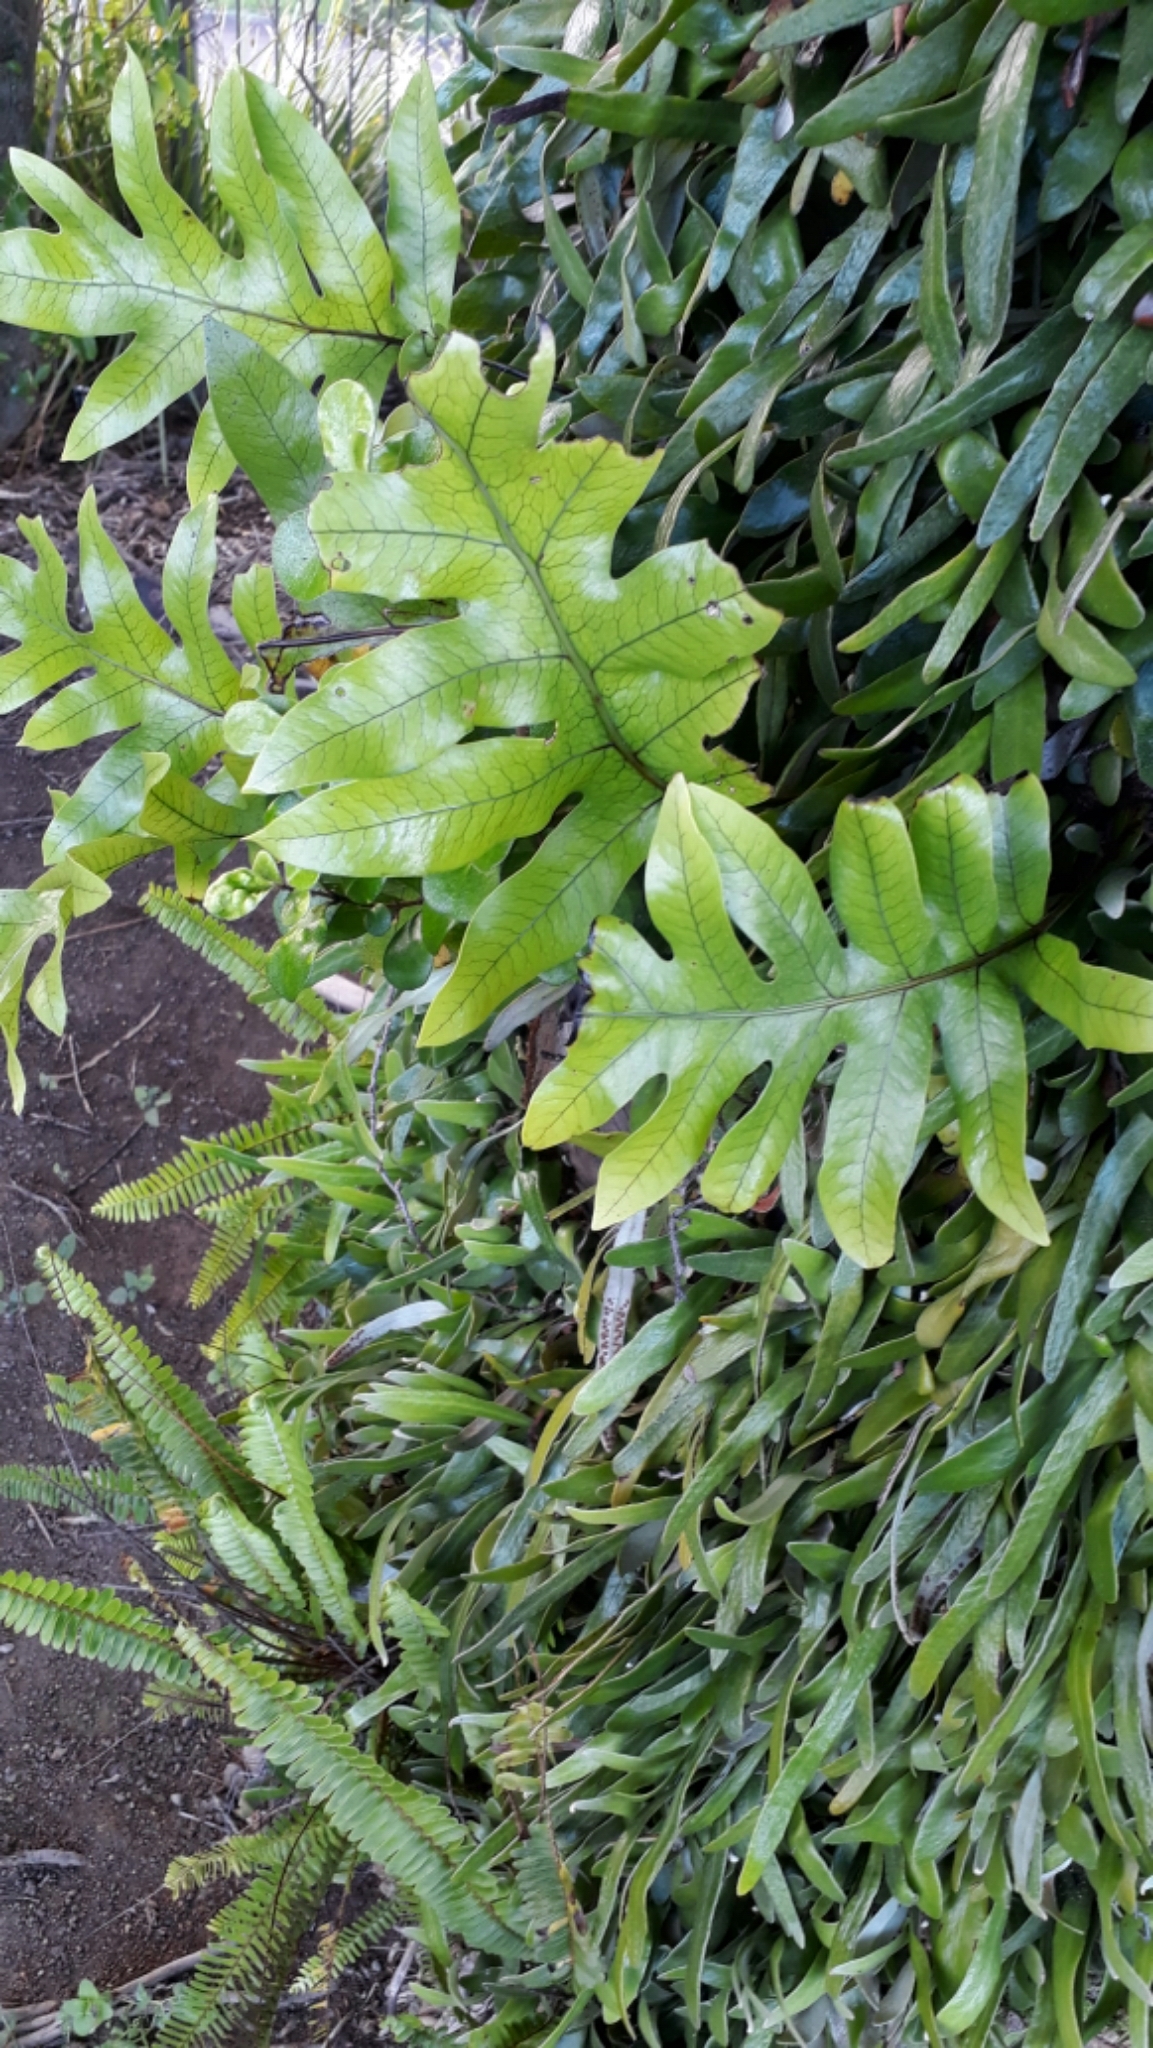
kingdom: Plantae
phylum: Tracheophyta
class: Polypodiopsida
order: Polypodiales
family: Polypodiaceae
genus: Lecanopteris
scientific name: Lecanopteris pustulata
